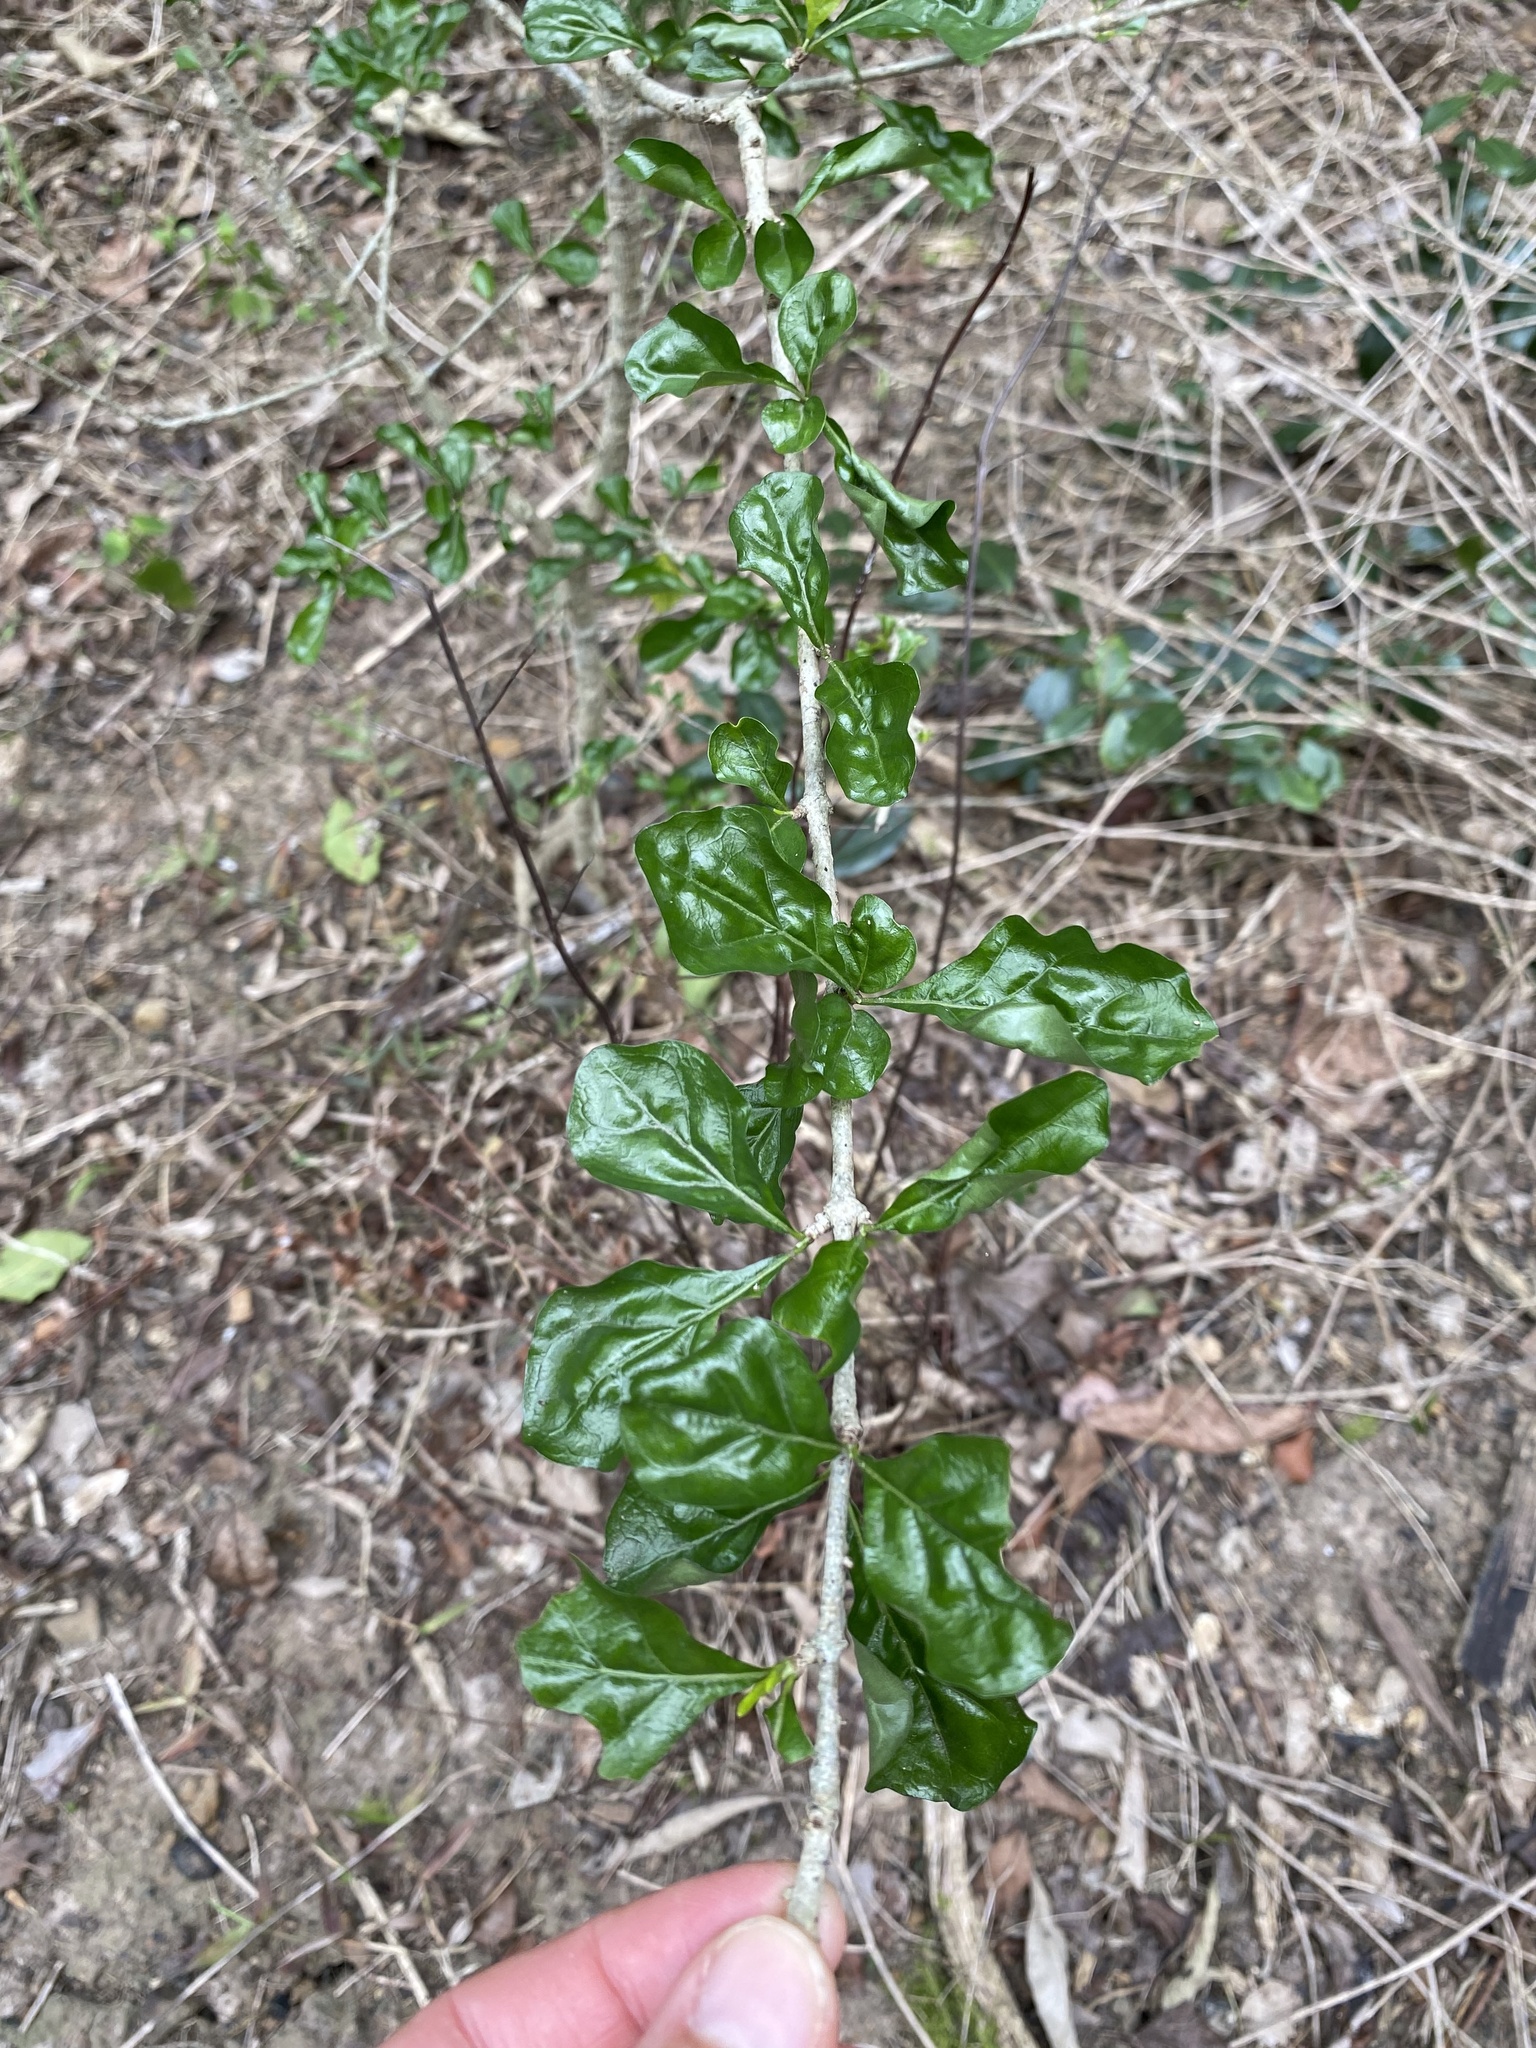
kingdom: Plantae
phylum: Tracheophyta
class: Magnoliopsida
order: Gentianales
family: Rubiaceae
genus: Coddia
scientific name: Coddia rudis
